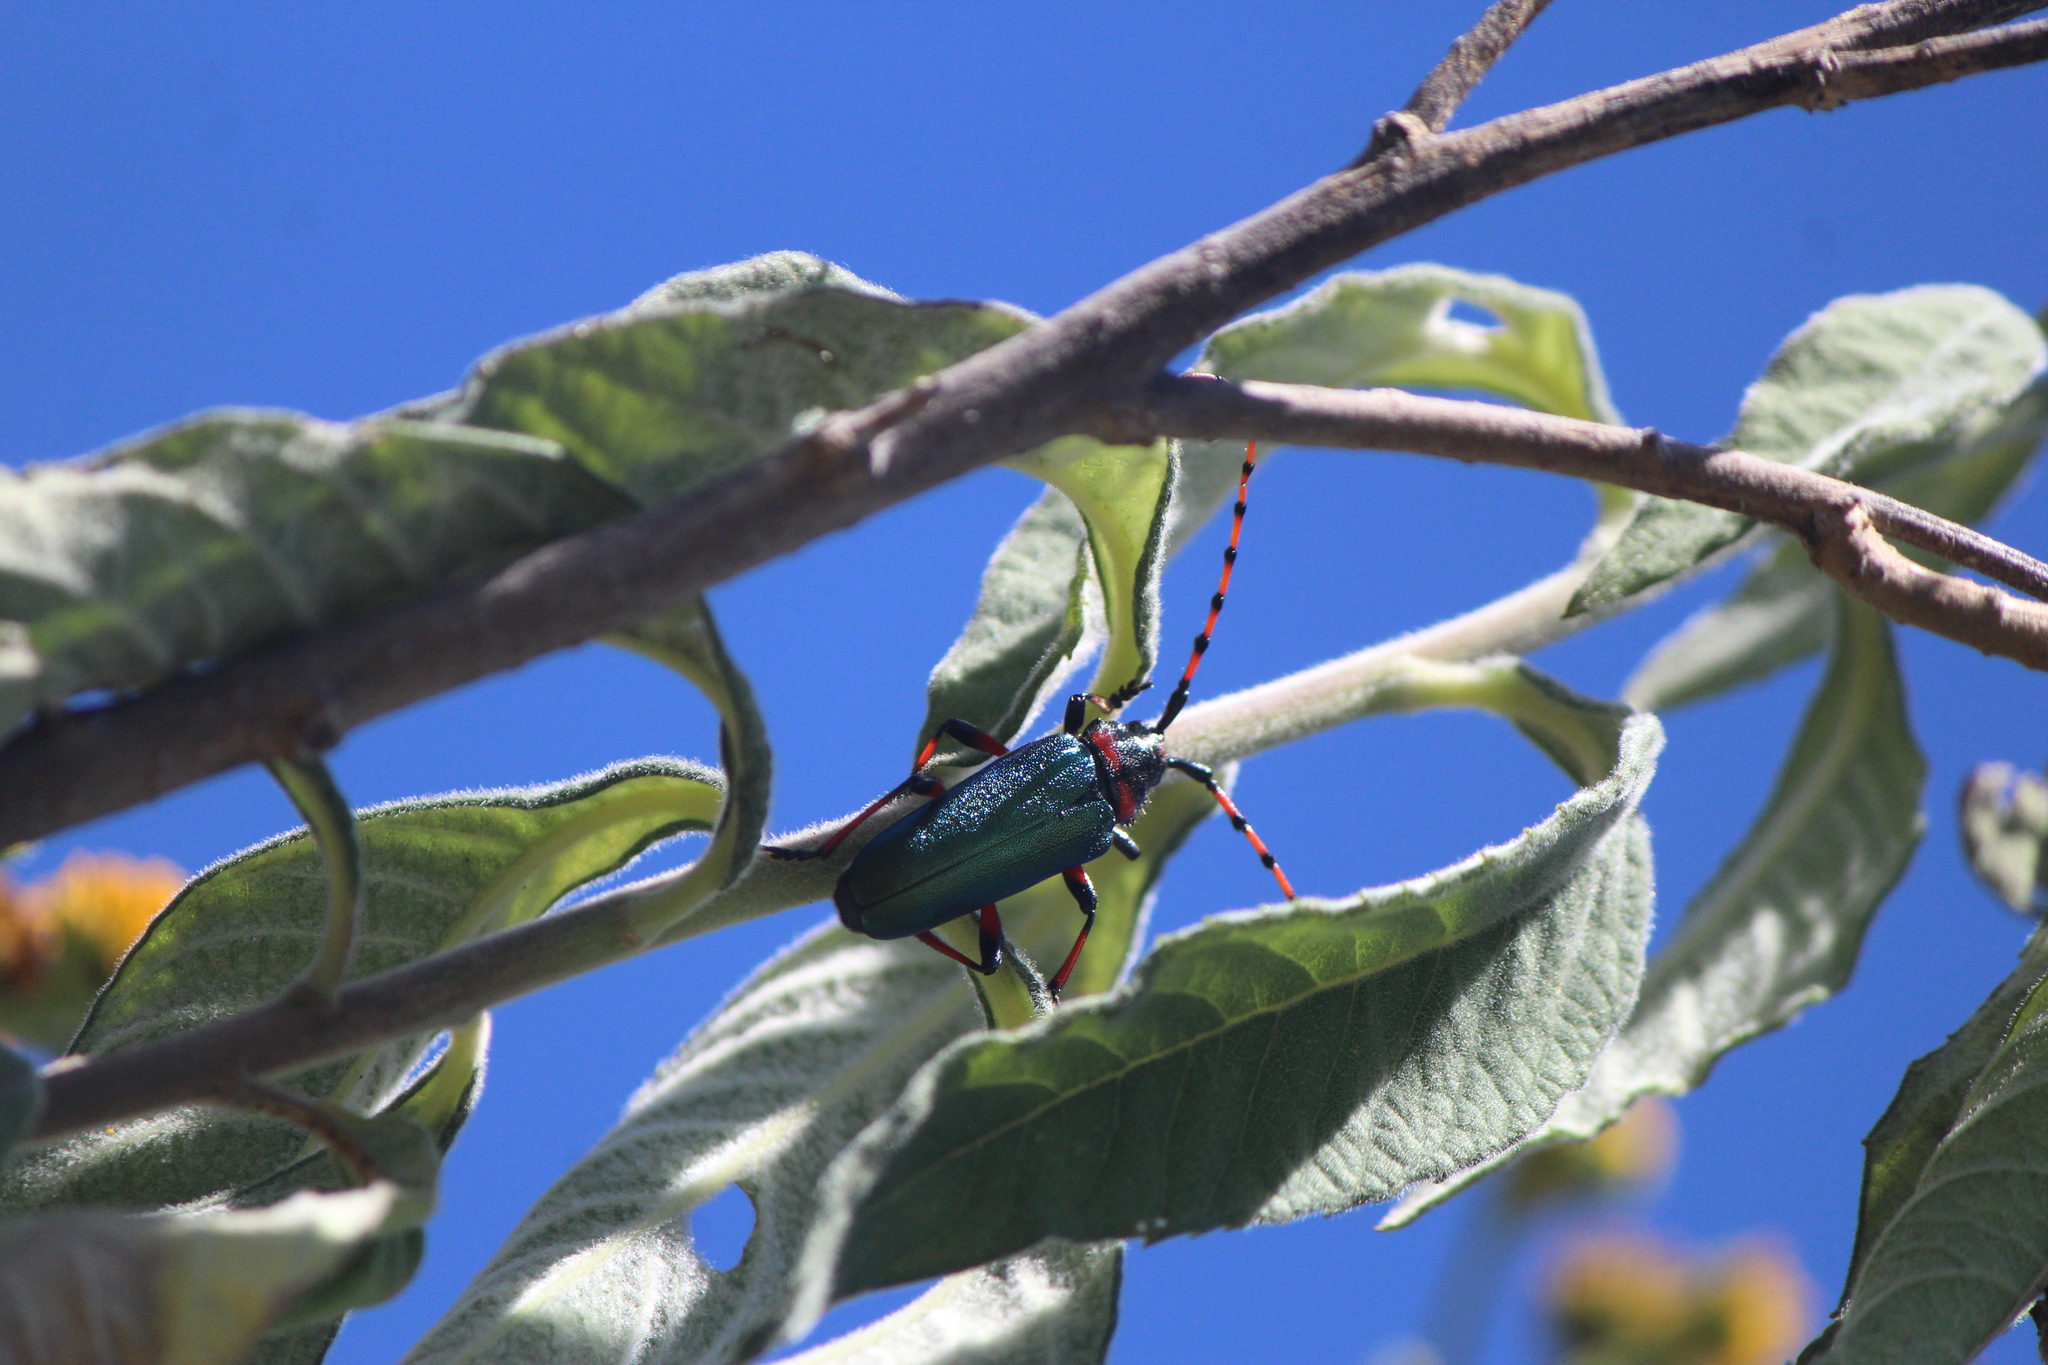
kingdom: Animalia
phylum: Arthropoda
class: Insecta
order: Coleoptera
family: Cerambycidae
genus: Stenaspis
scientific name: Stenaspis verticalis
